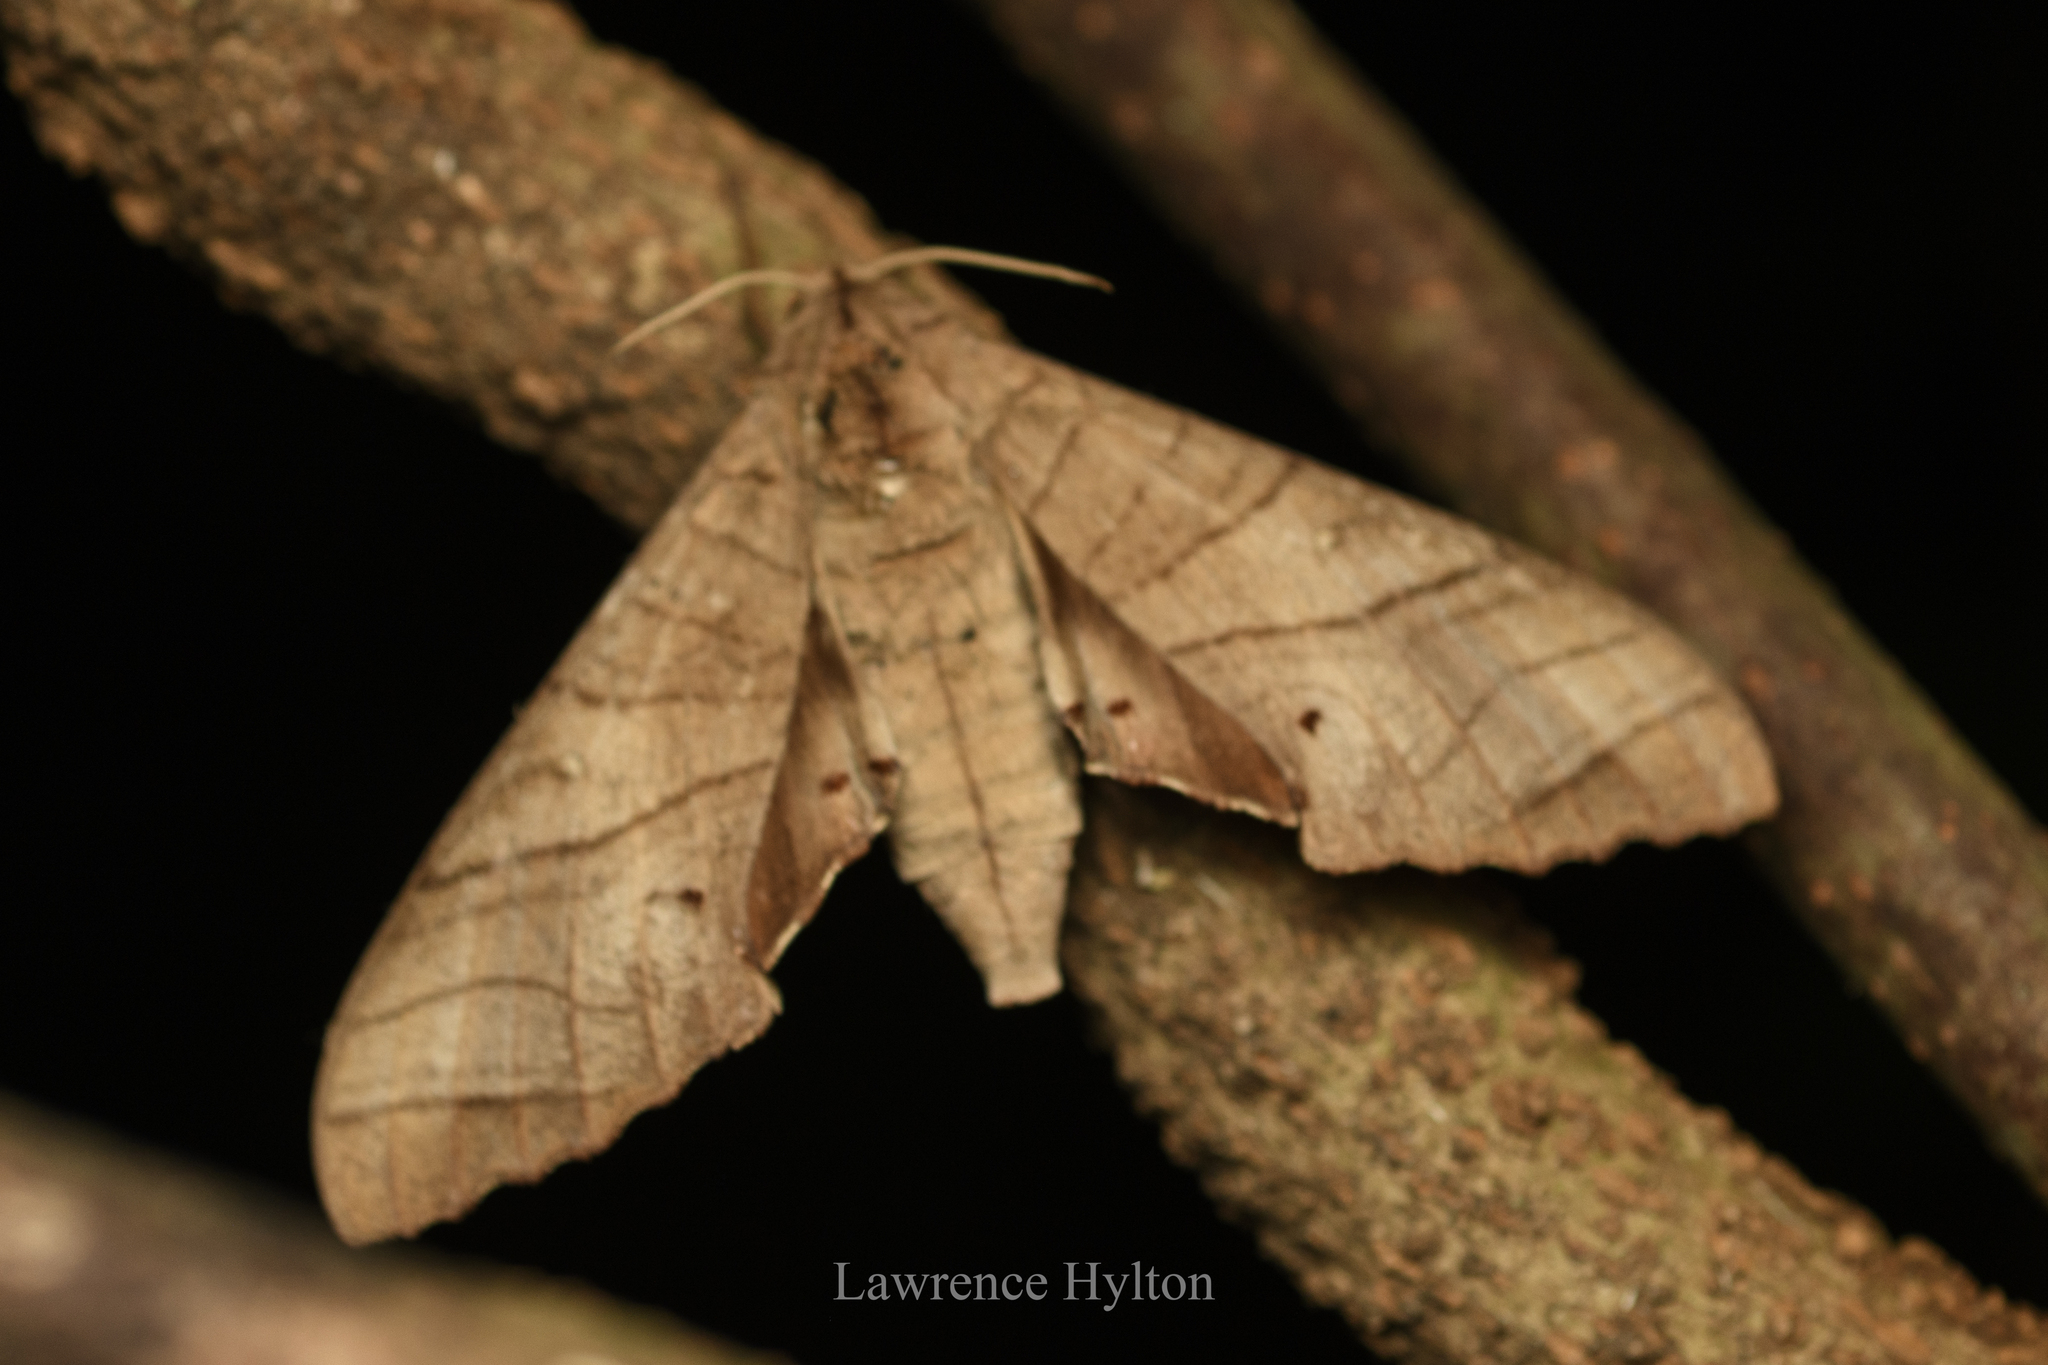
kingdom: Animalia
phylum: Arthropoda
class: Insecta
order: Lepidoptera
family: Sphingidae
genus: Marumba
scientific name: Marumba dyras
